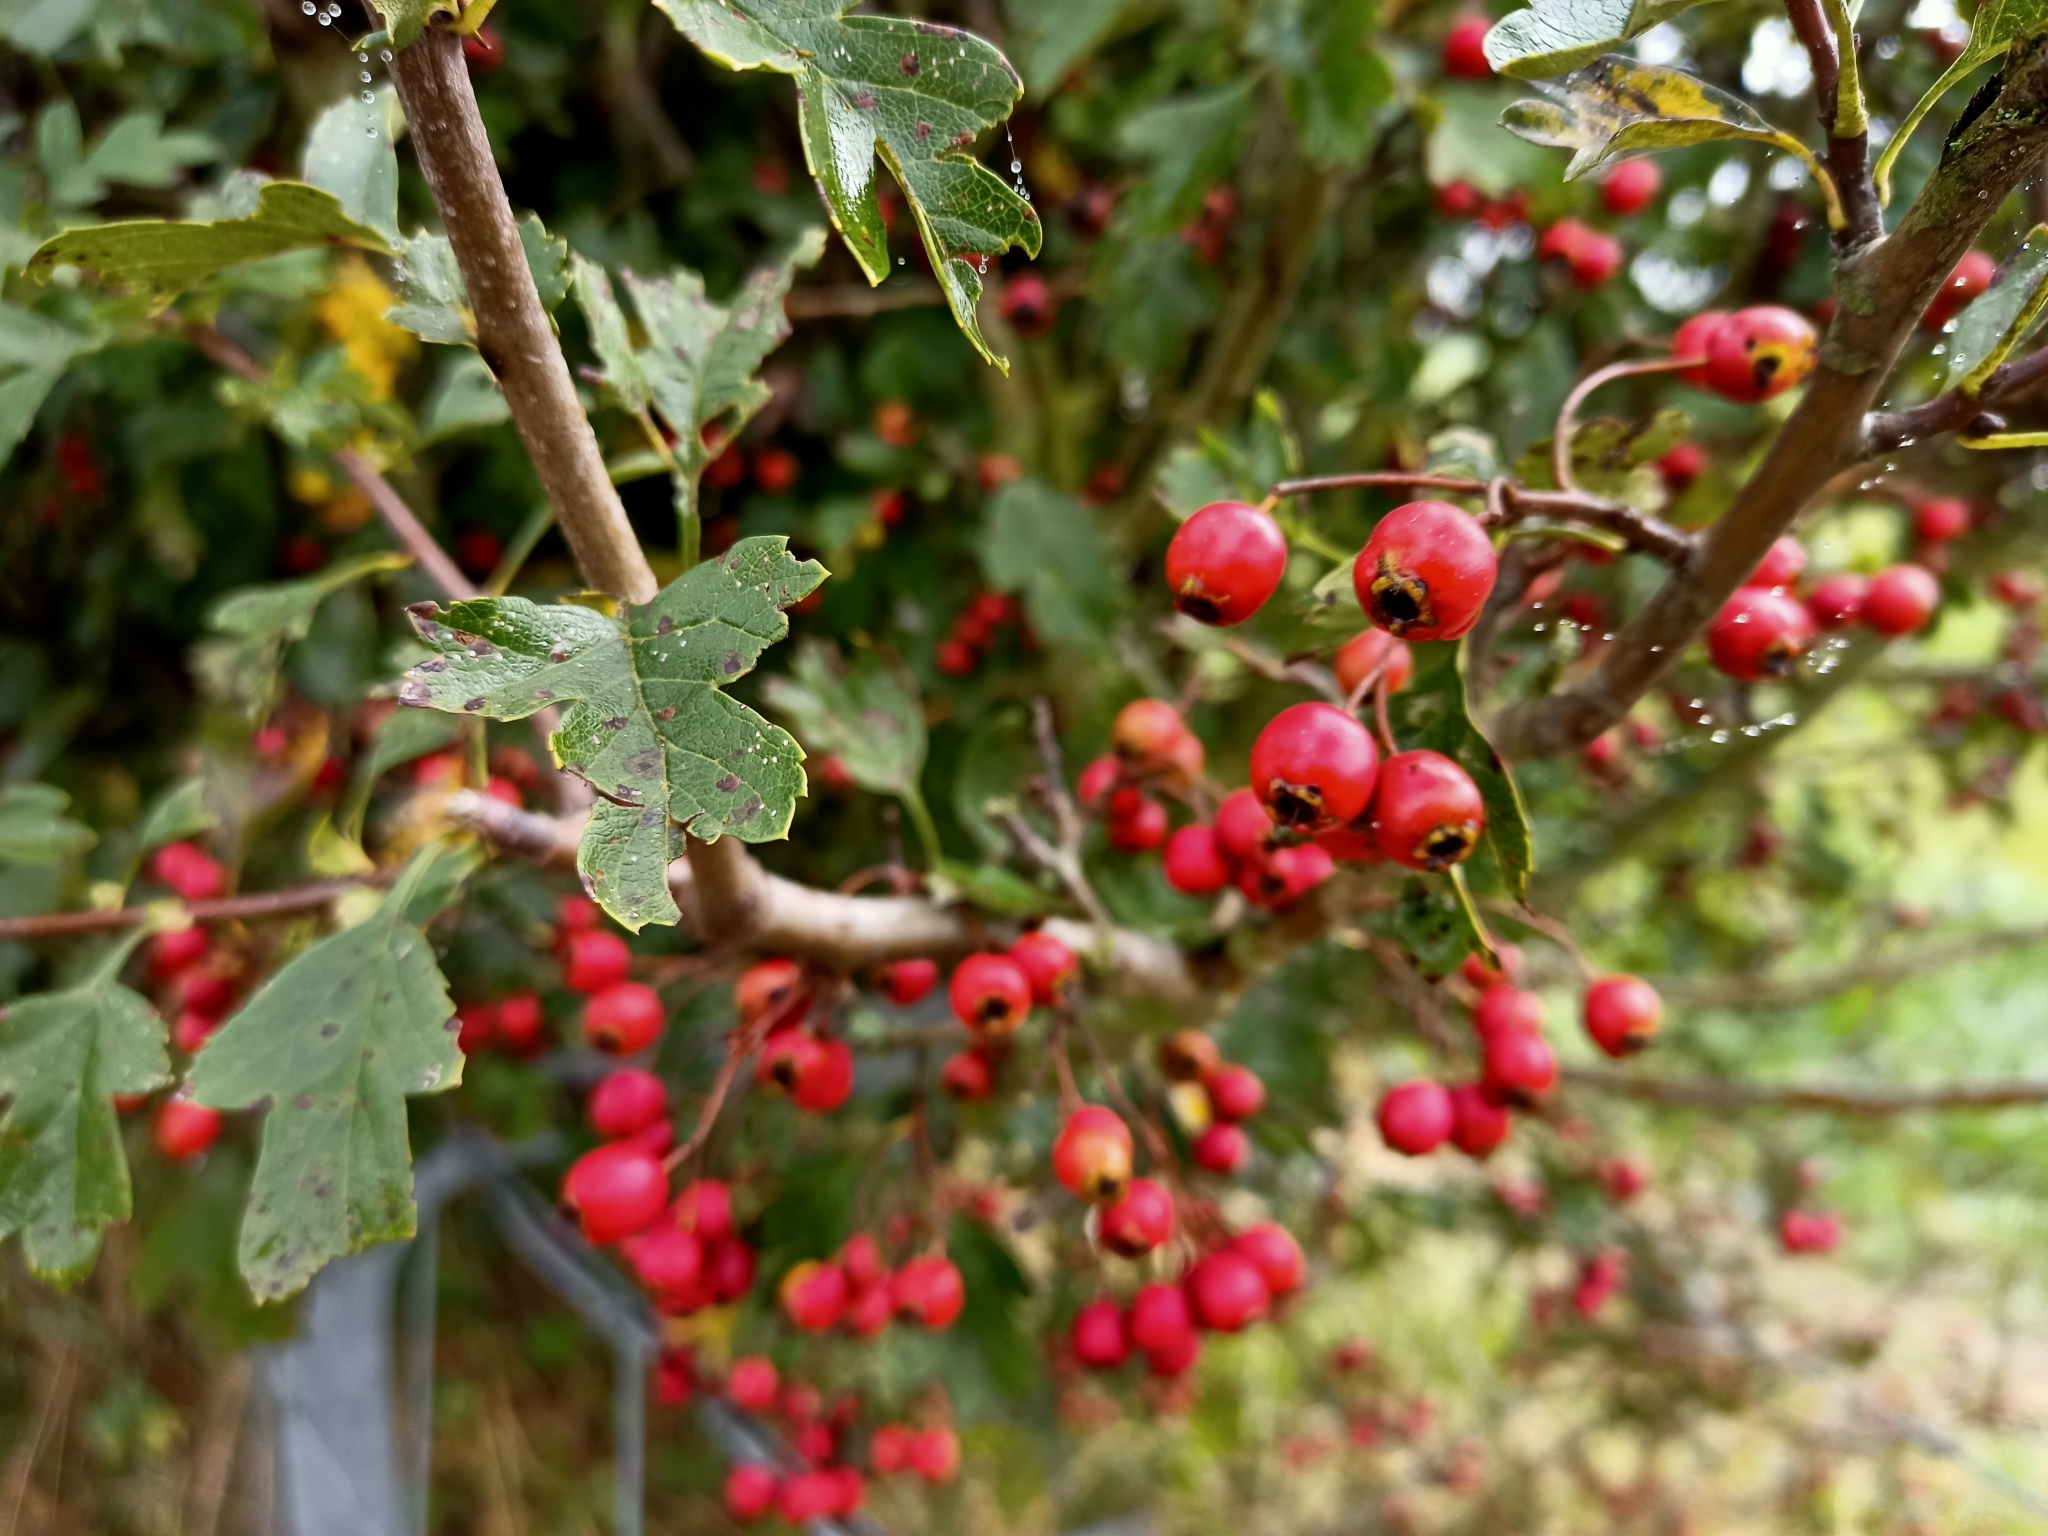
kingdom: Plantae
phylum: Tracheophyta
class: Magnoliopsida
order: Rosales
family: Rosaceae
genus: Crataegus
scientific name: Crataegus monogyna
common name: Hawthorn
